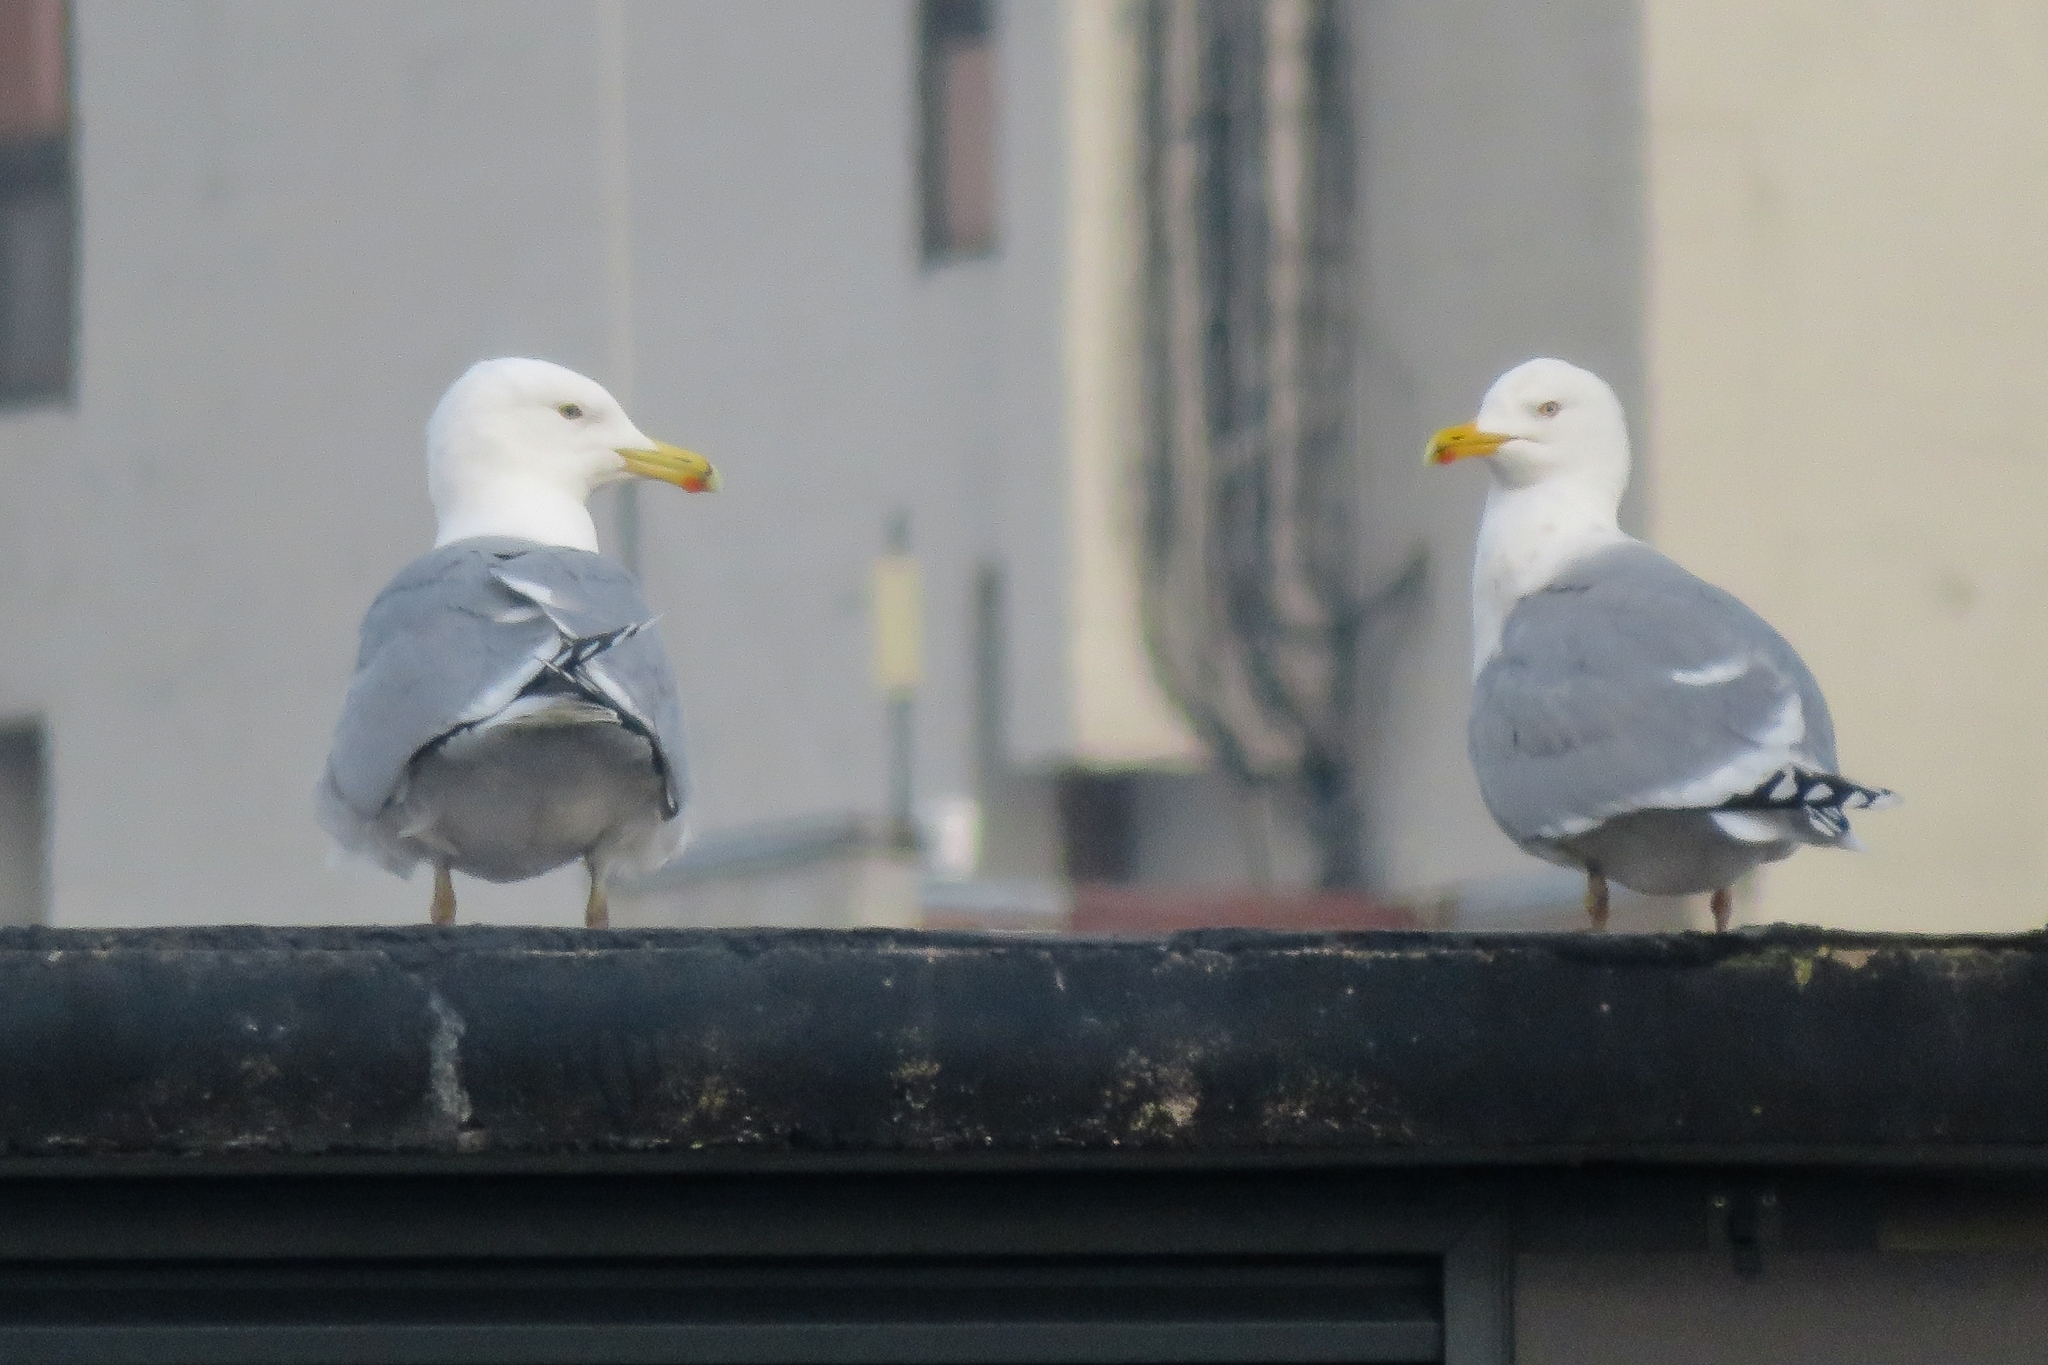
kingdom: Animalia
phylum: Chordata
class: Aves
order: Charadriiformes
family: Laridae
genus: Larus
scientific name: Larus argentatus
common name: Herring gull
